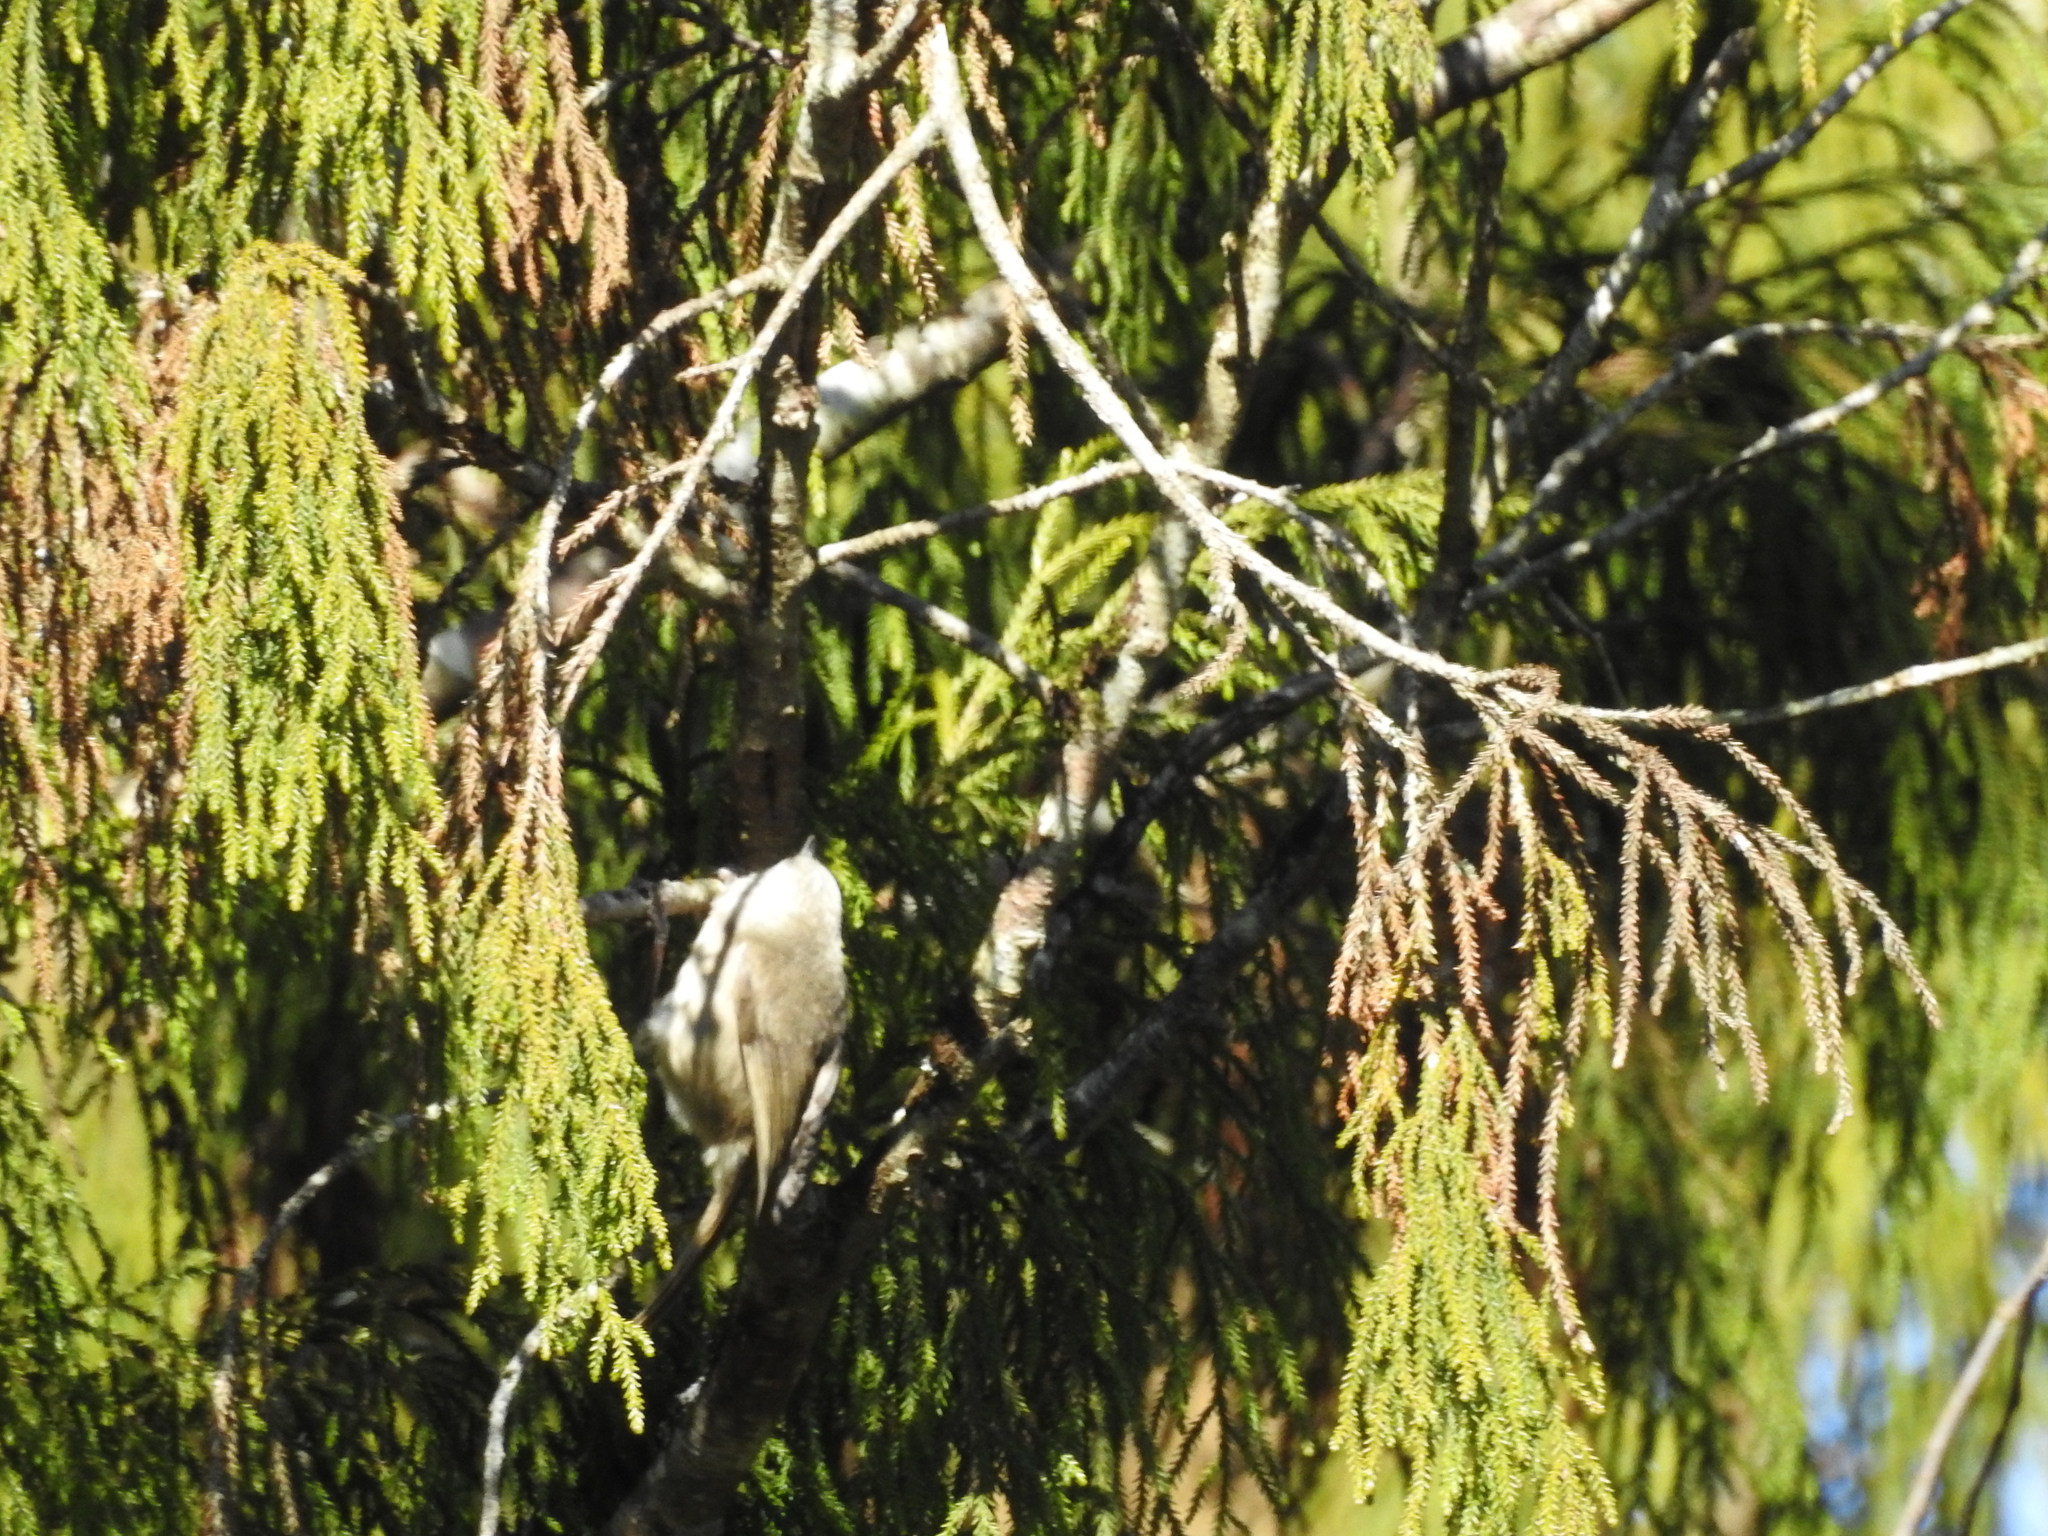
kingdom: Animalia
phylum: Chordata
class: Aves
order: Passeriformes
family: Acanthizidae
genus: Mohoua
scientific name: Mohoua albicilla
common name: Whitehead
